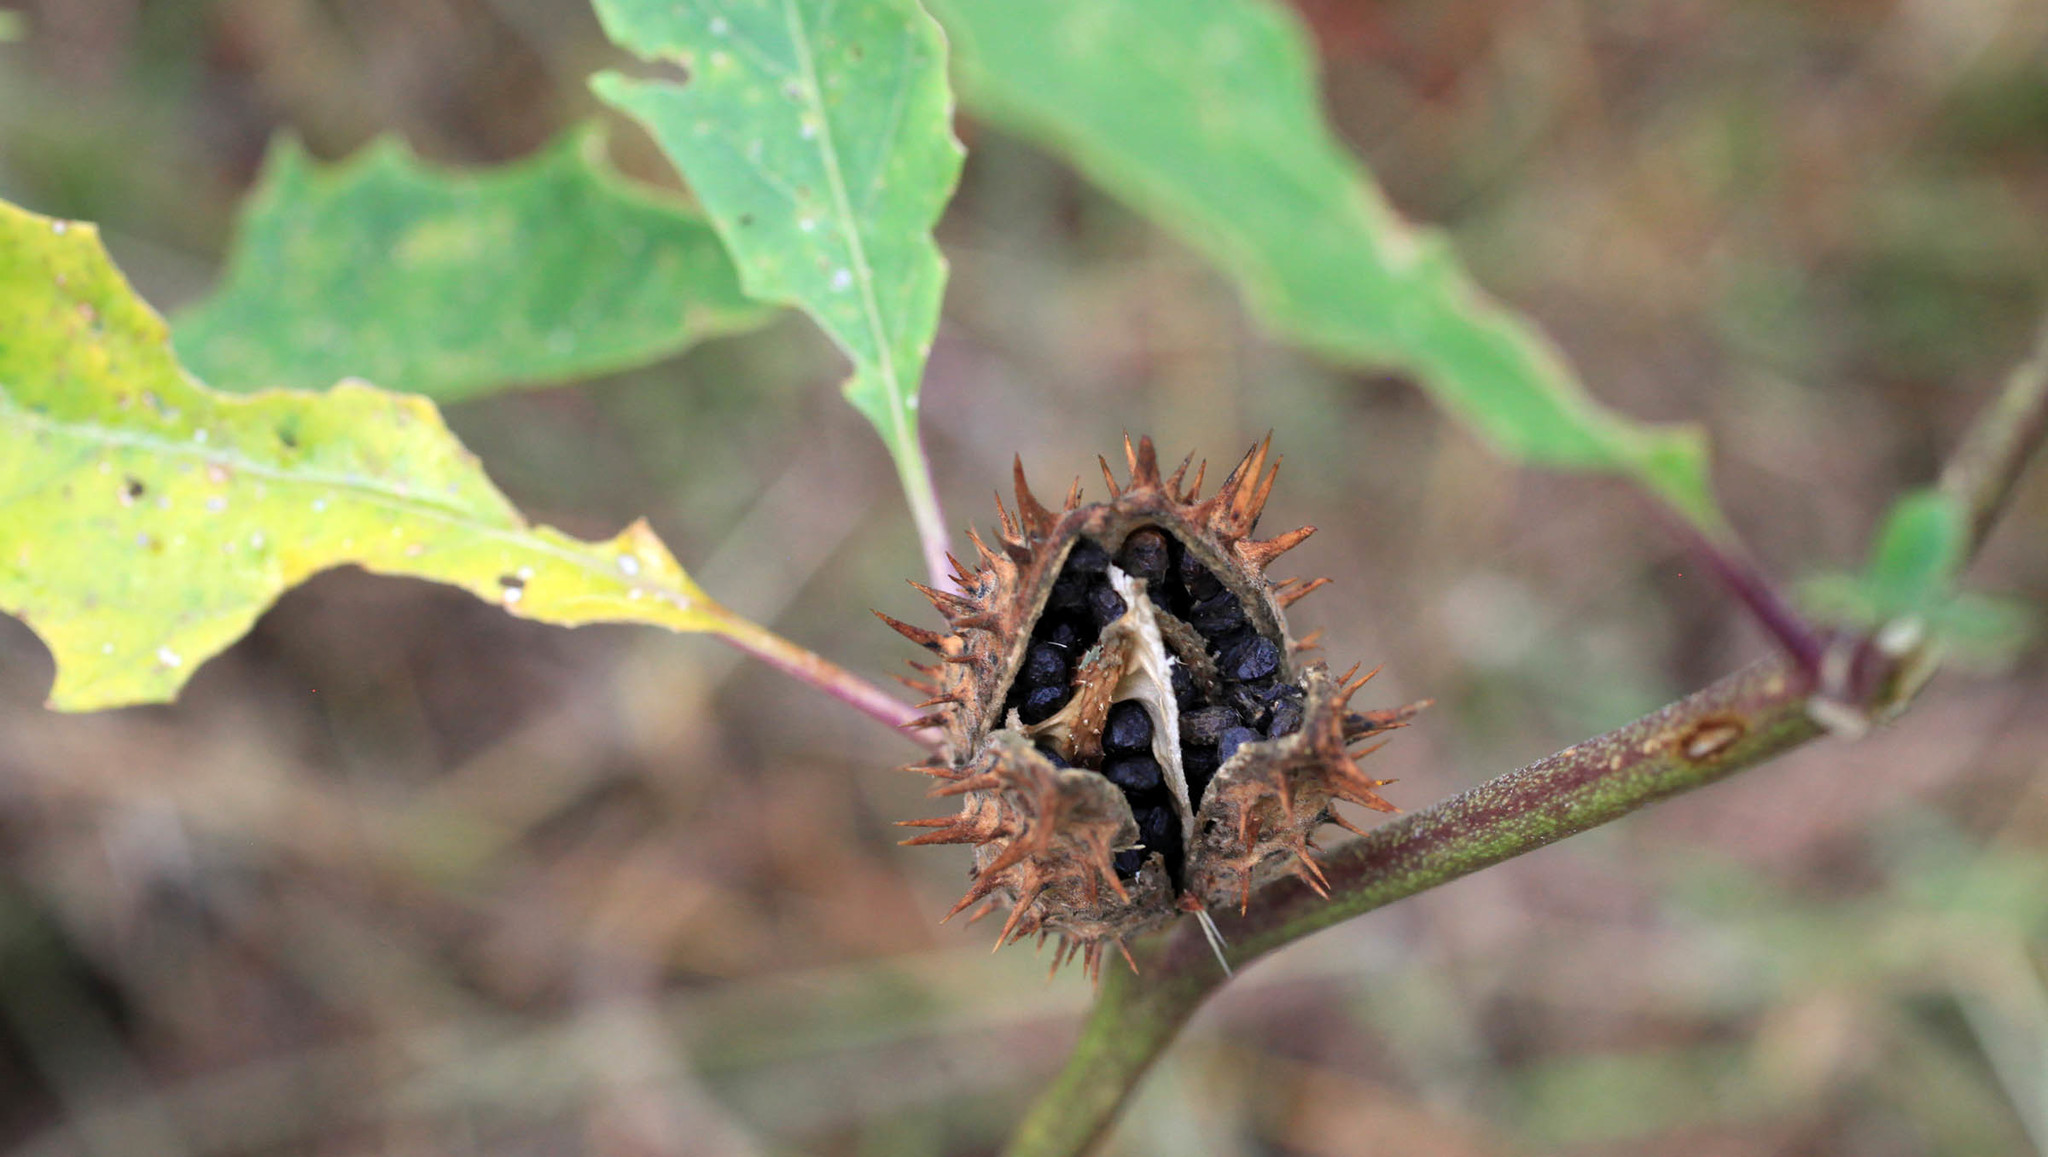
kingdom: Plantae
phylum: Tracheophyta
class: Magnoliopsida
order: Solanales
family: Solanaceae
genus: Datura
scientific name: Datura stramonium
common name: Thorn-apple
